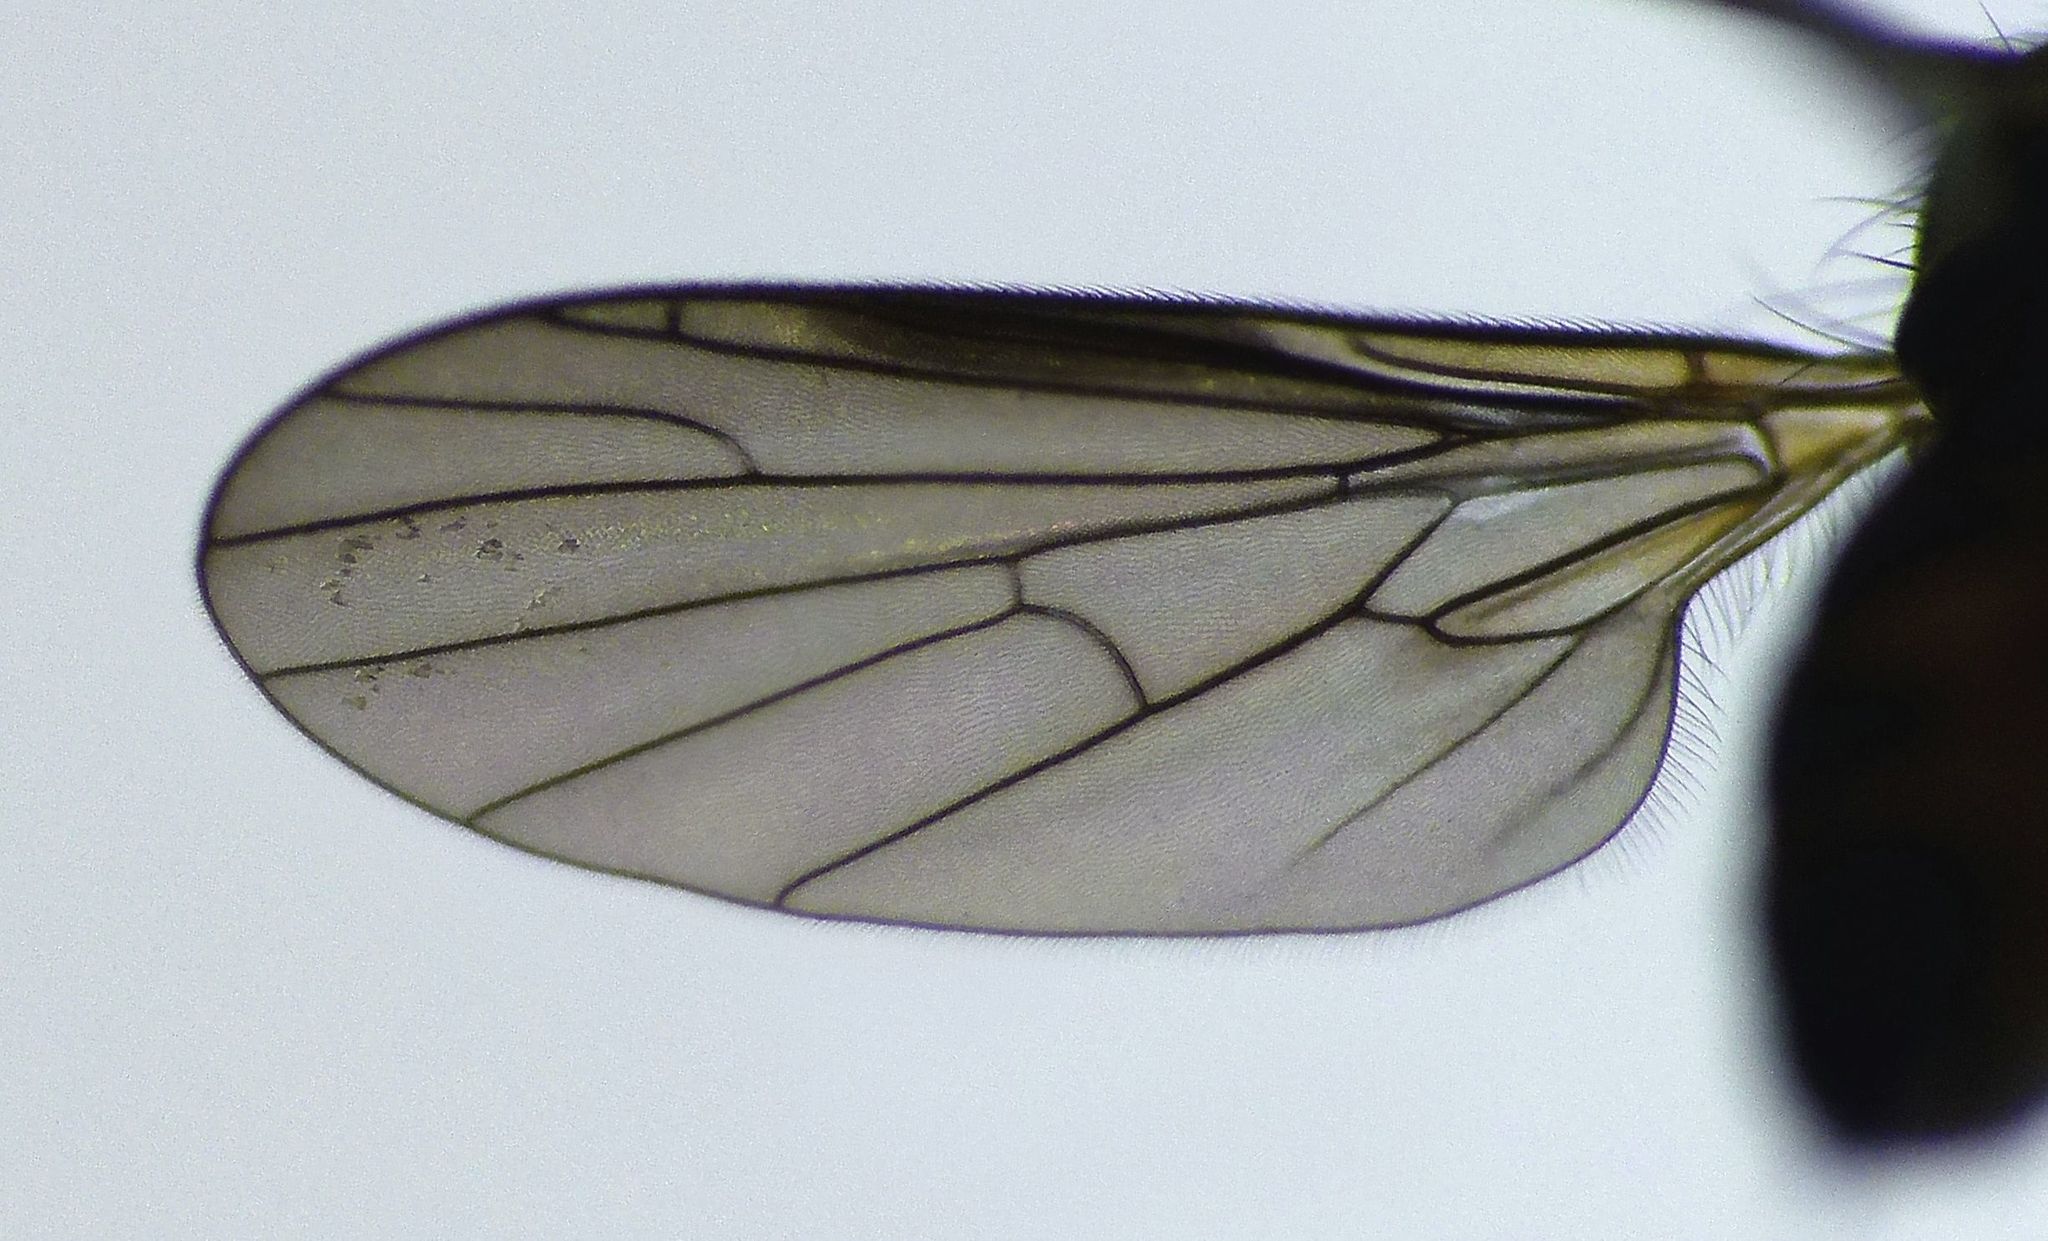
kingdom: Animalia
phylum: Arthropoda
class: Insecta
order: Diptera
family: Empididae
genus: Hilara
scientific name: Hilara anisonychia
